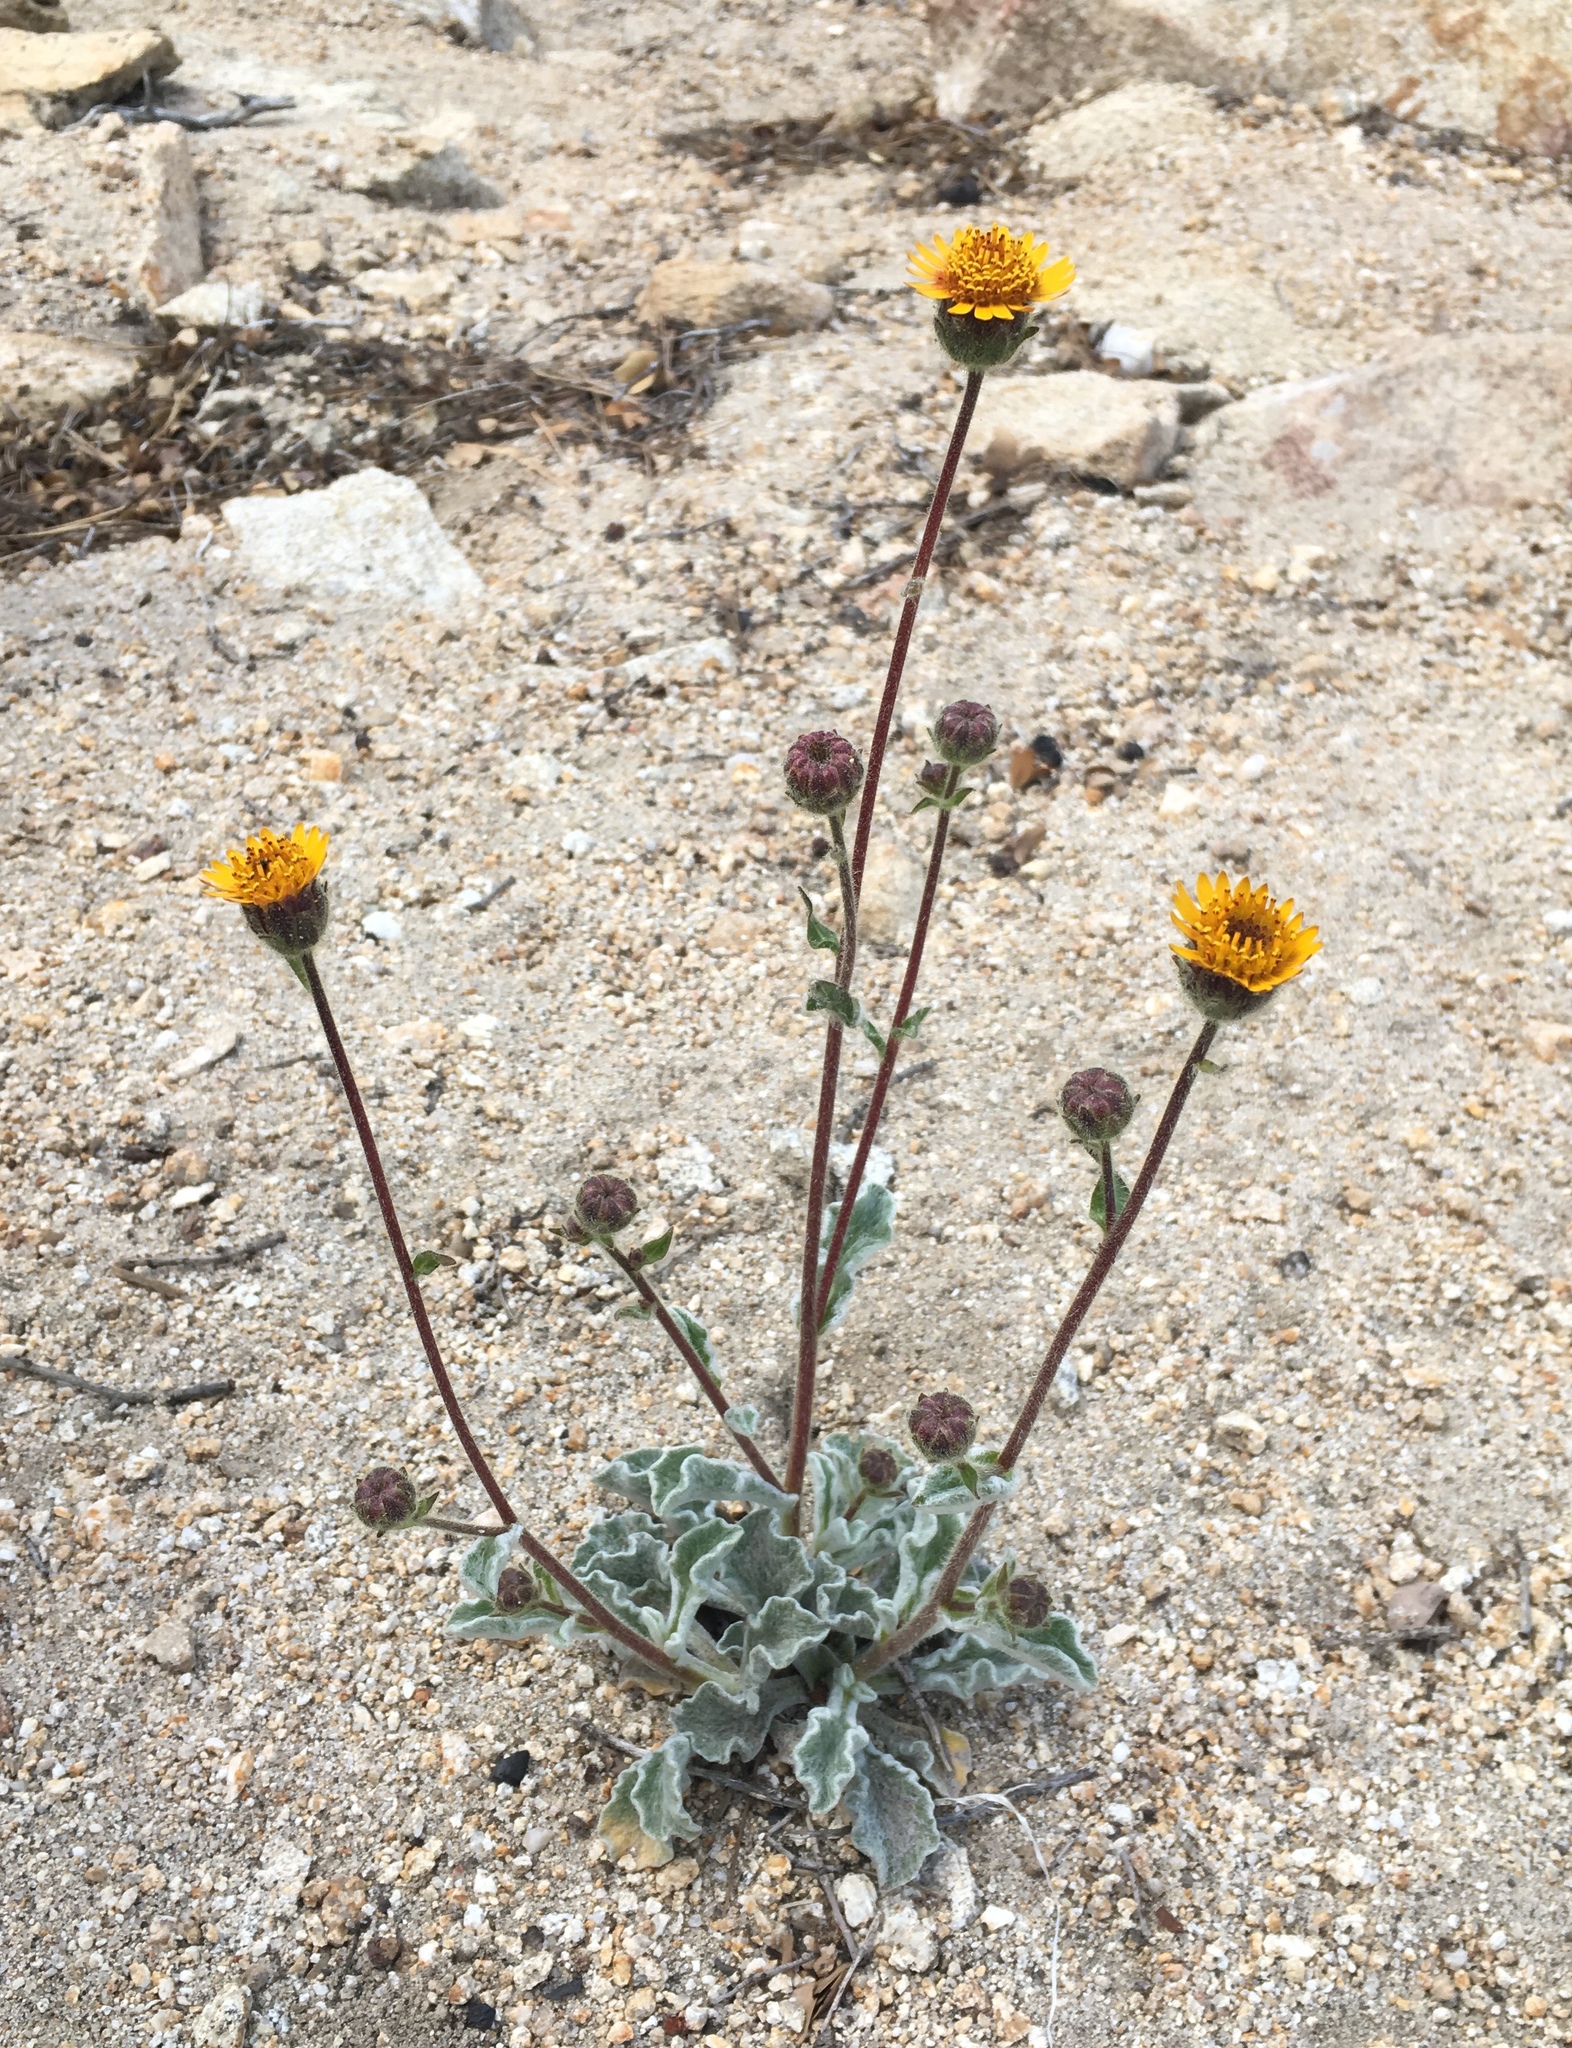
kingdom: Plantae
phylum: Tracheophyta
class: Magnoliopsida
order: Asterales
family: Asteraceae
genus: Hulsea
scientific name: Hulsea vestita
